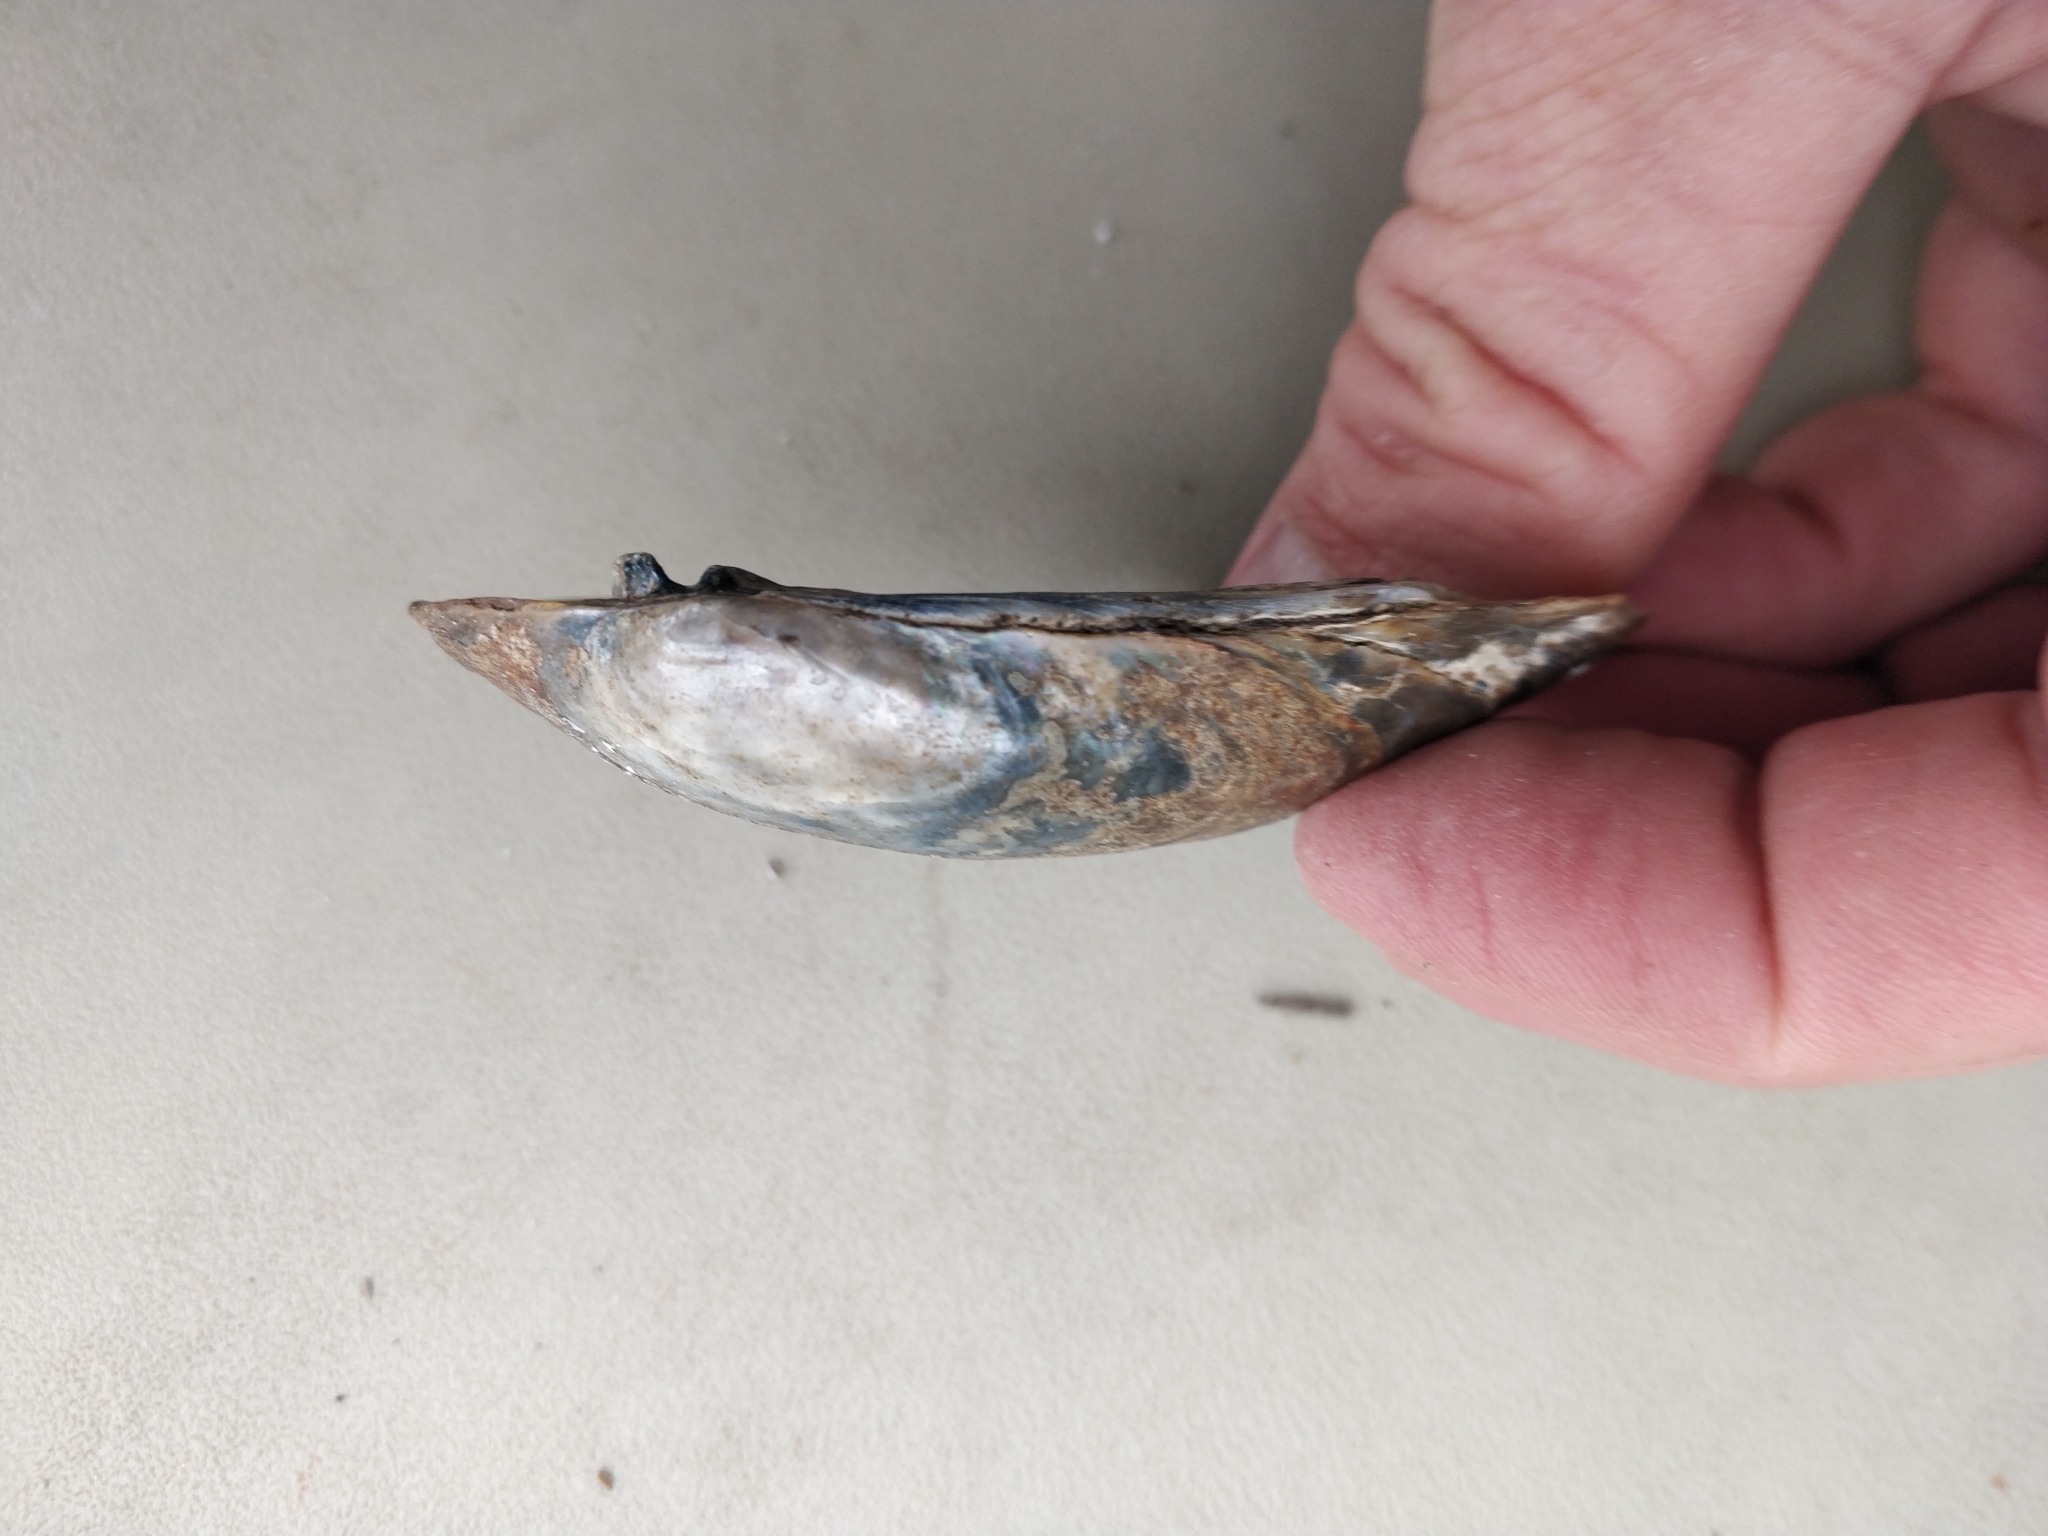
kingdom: Animalia
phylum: Mollusca
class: Bivalvia
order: Unionida
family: Unionidae
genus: Lampsilis
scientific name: Lampsilis siliquoidea
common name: Fatmucket
